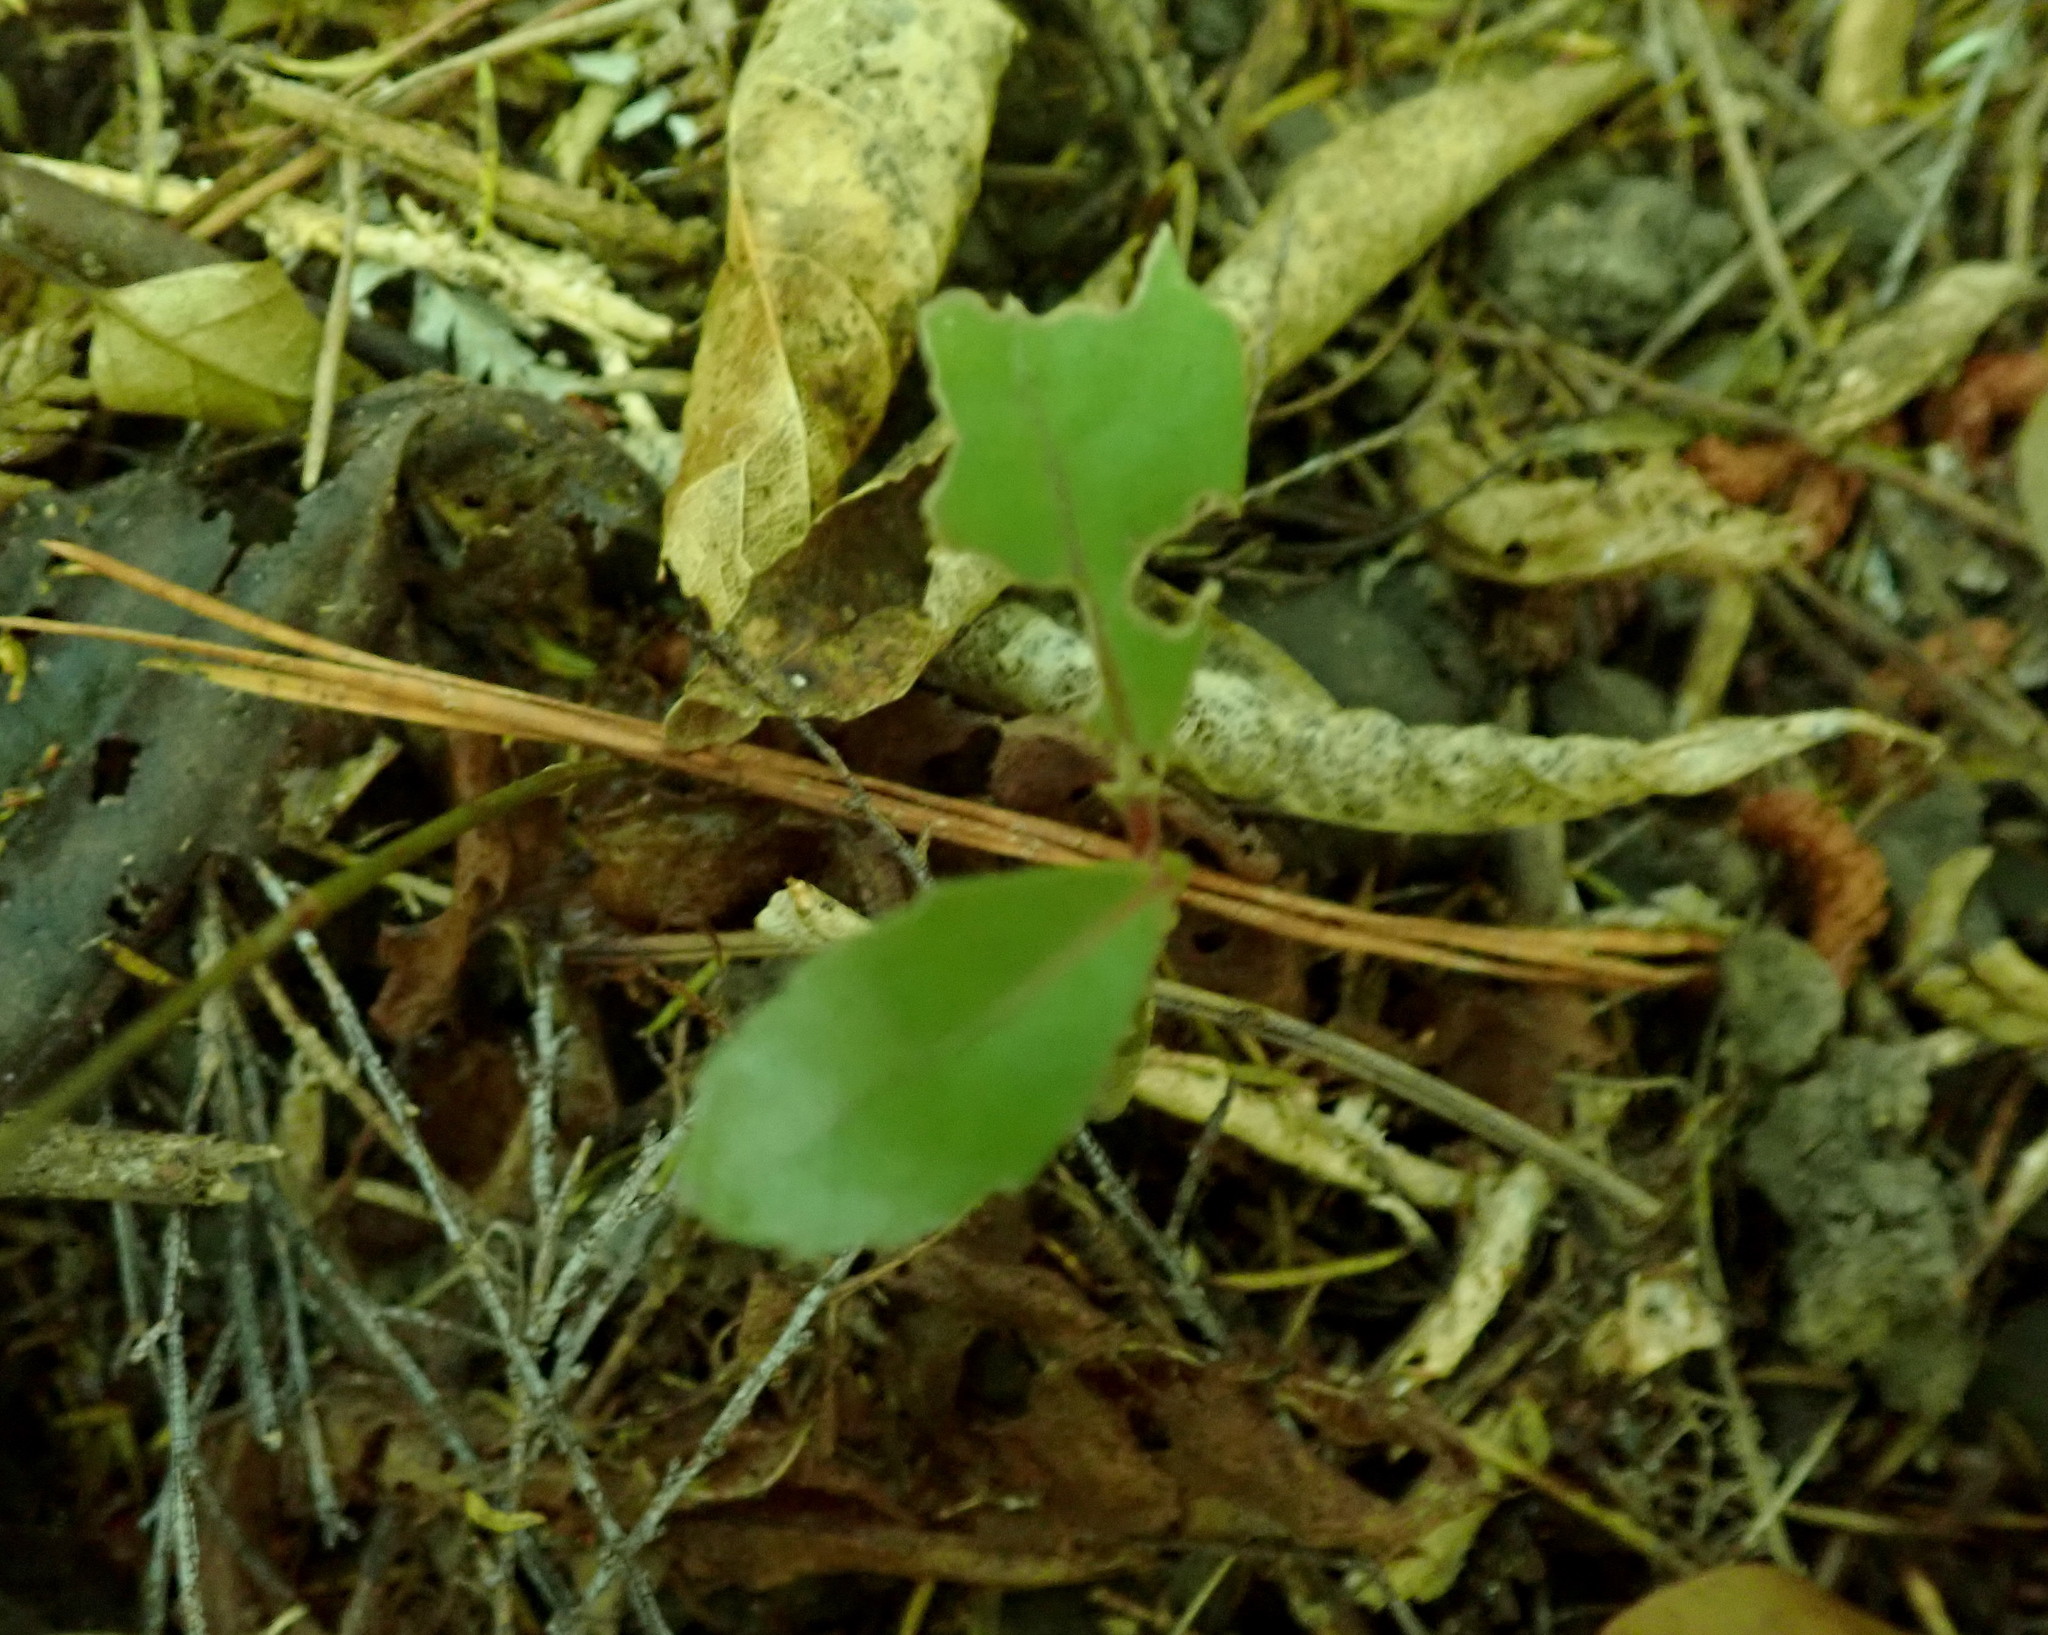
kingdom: Plantae
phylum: Tracheophyta
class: Magnoliopsida
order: Laurales
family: Monimiaceae
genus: Hedycarya
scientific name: Hedycarya arborea
